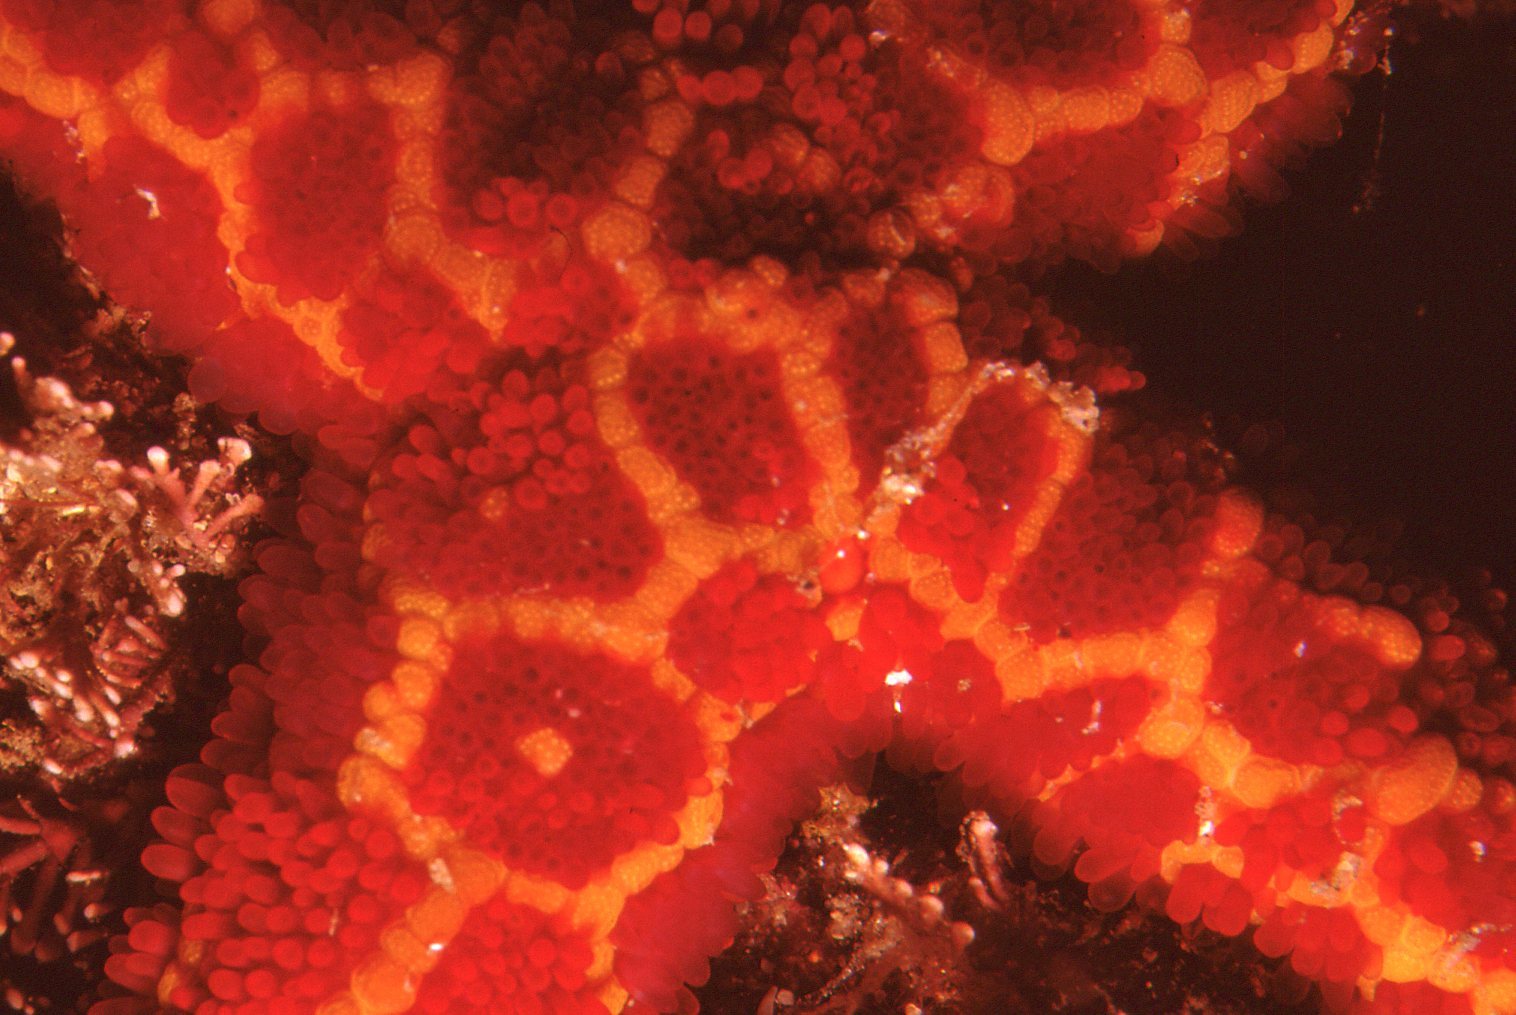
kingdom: Animalia
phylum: Echinodermata
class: Asteroidea
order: Spinulosida
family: Echinasteridae
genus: Plectaster
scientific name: Plectaster decanus
